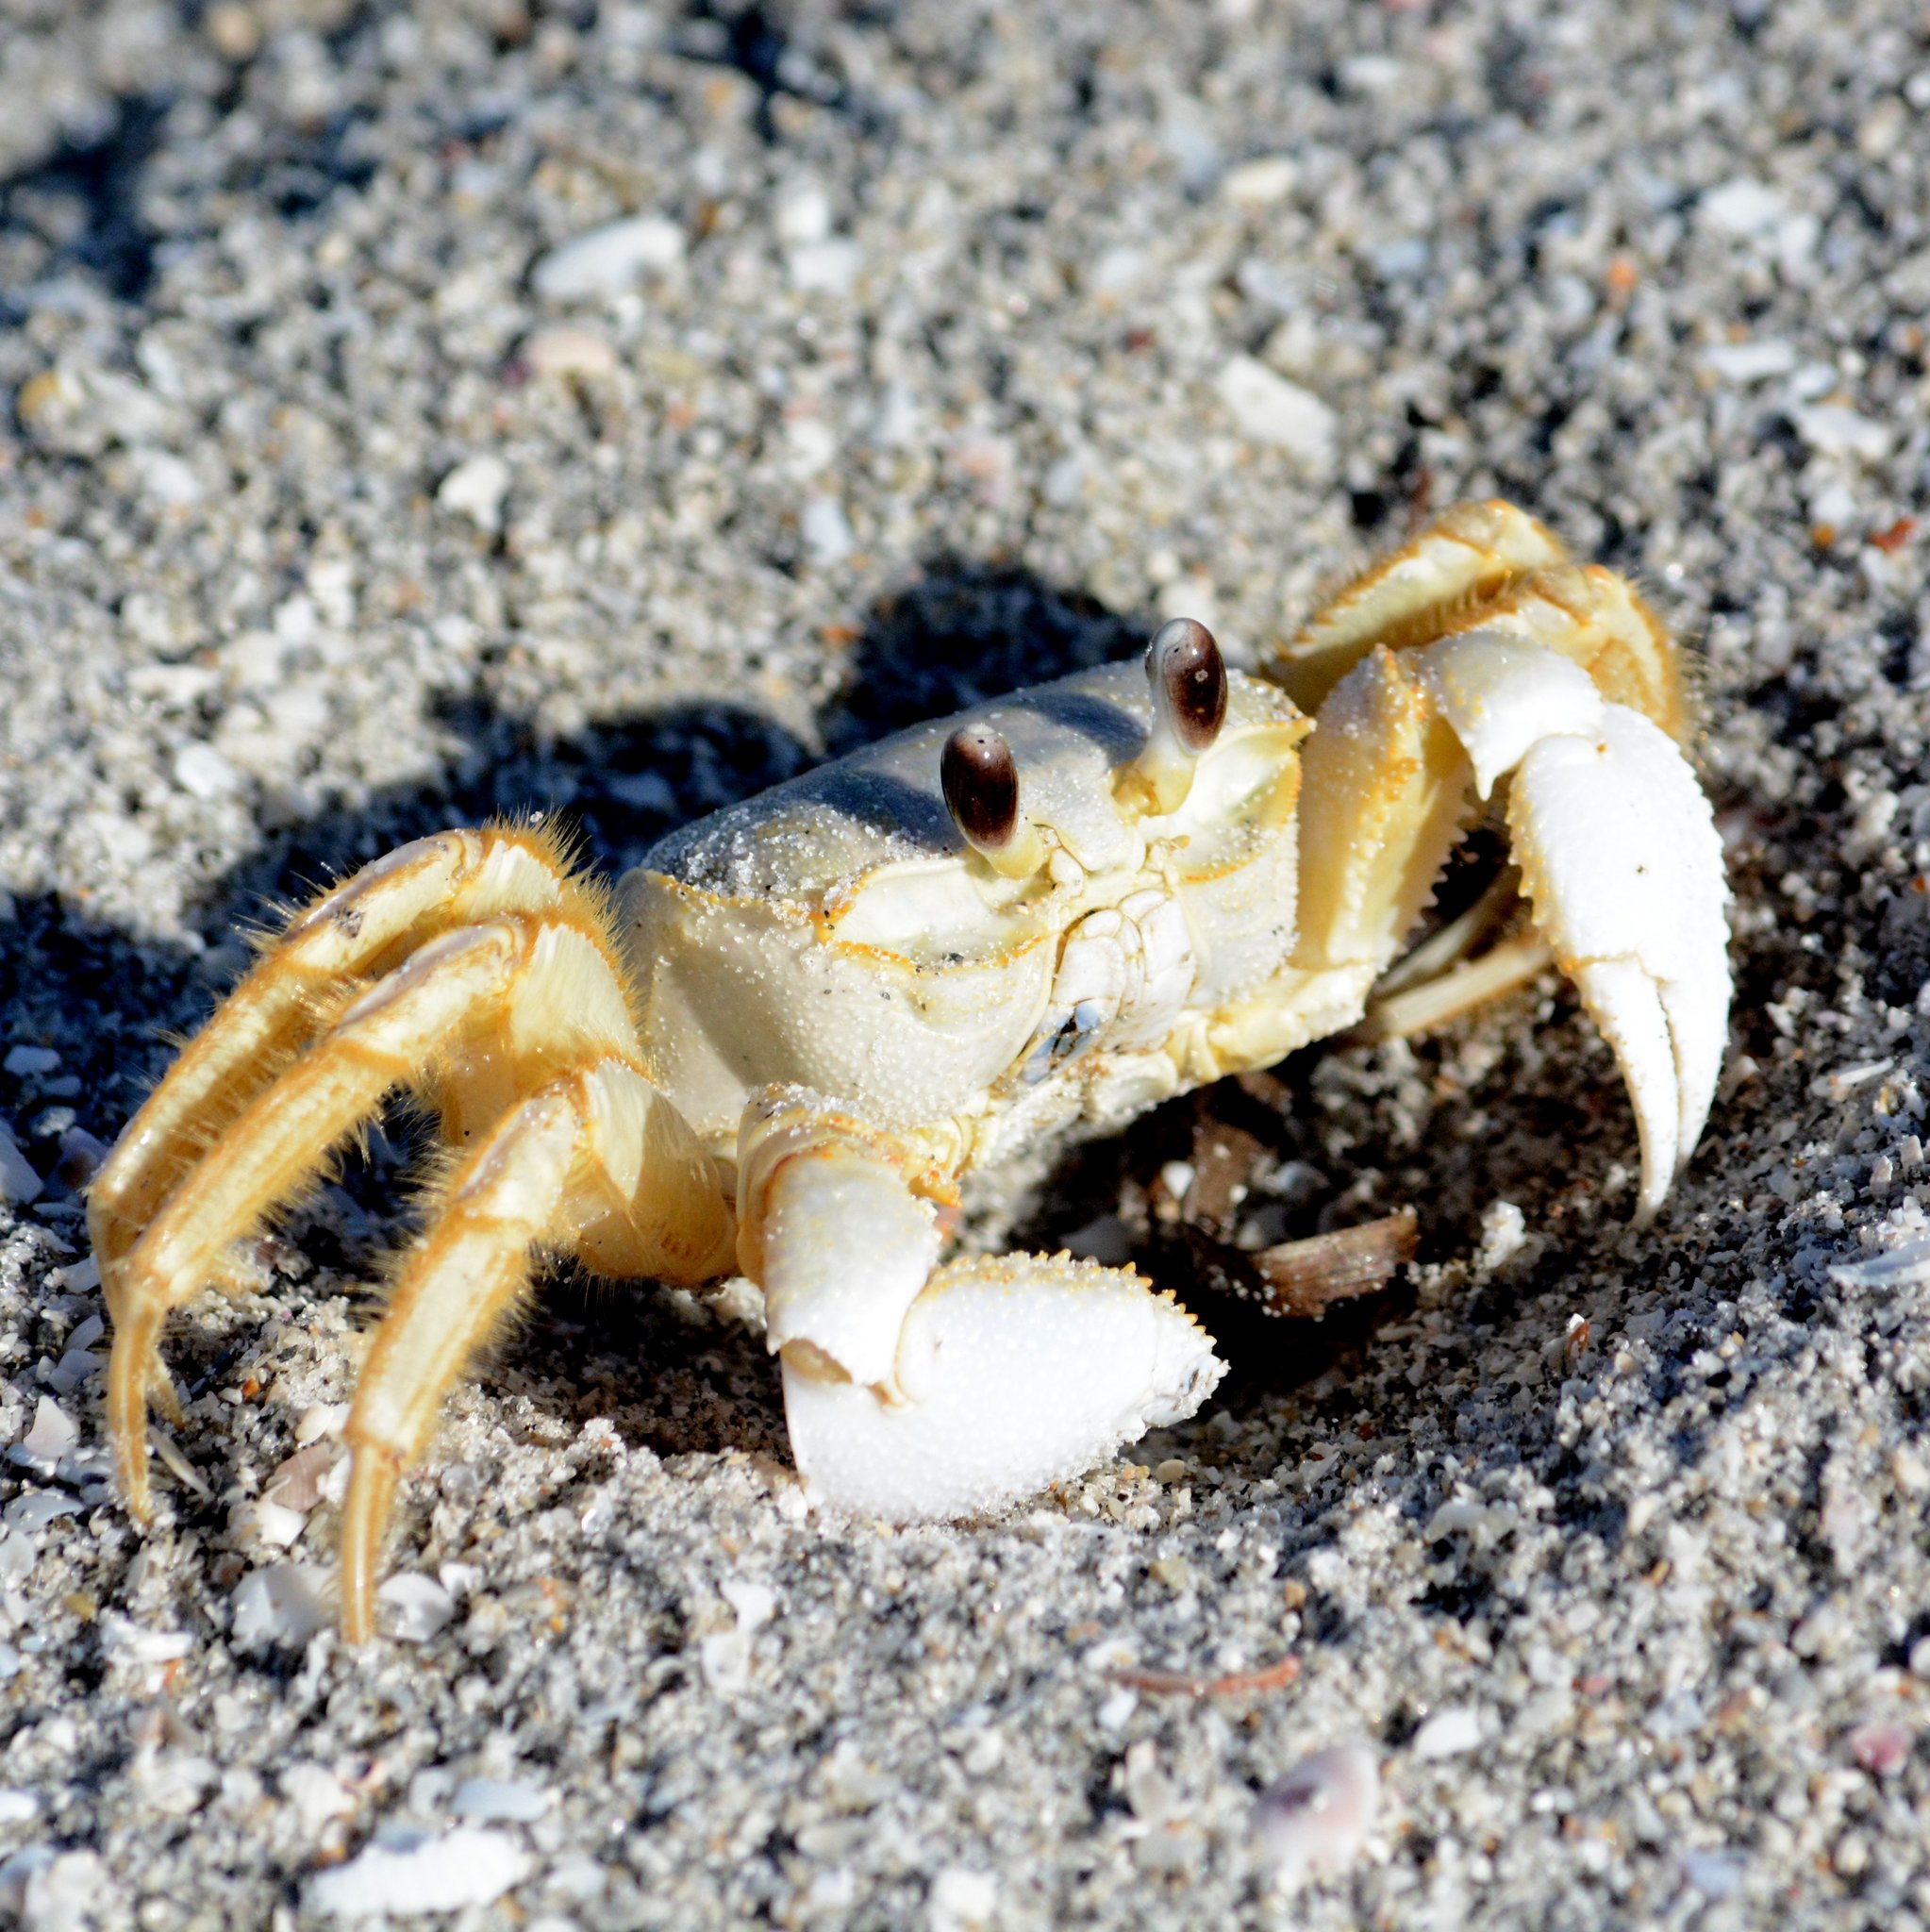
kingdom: Animalia
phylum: Arthropoda
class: Malacostraca
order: Decapoda
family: Ocypodidae
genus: Ocypode
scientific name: Ocypode quadrata
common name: Ghost crab
